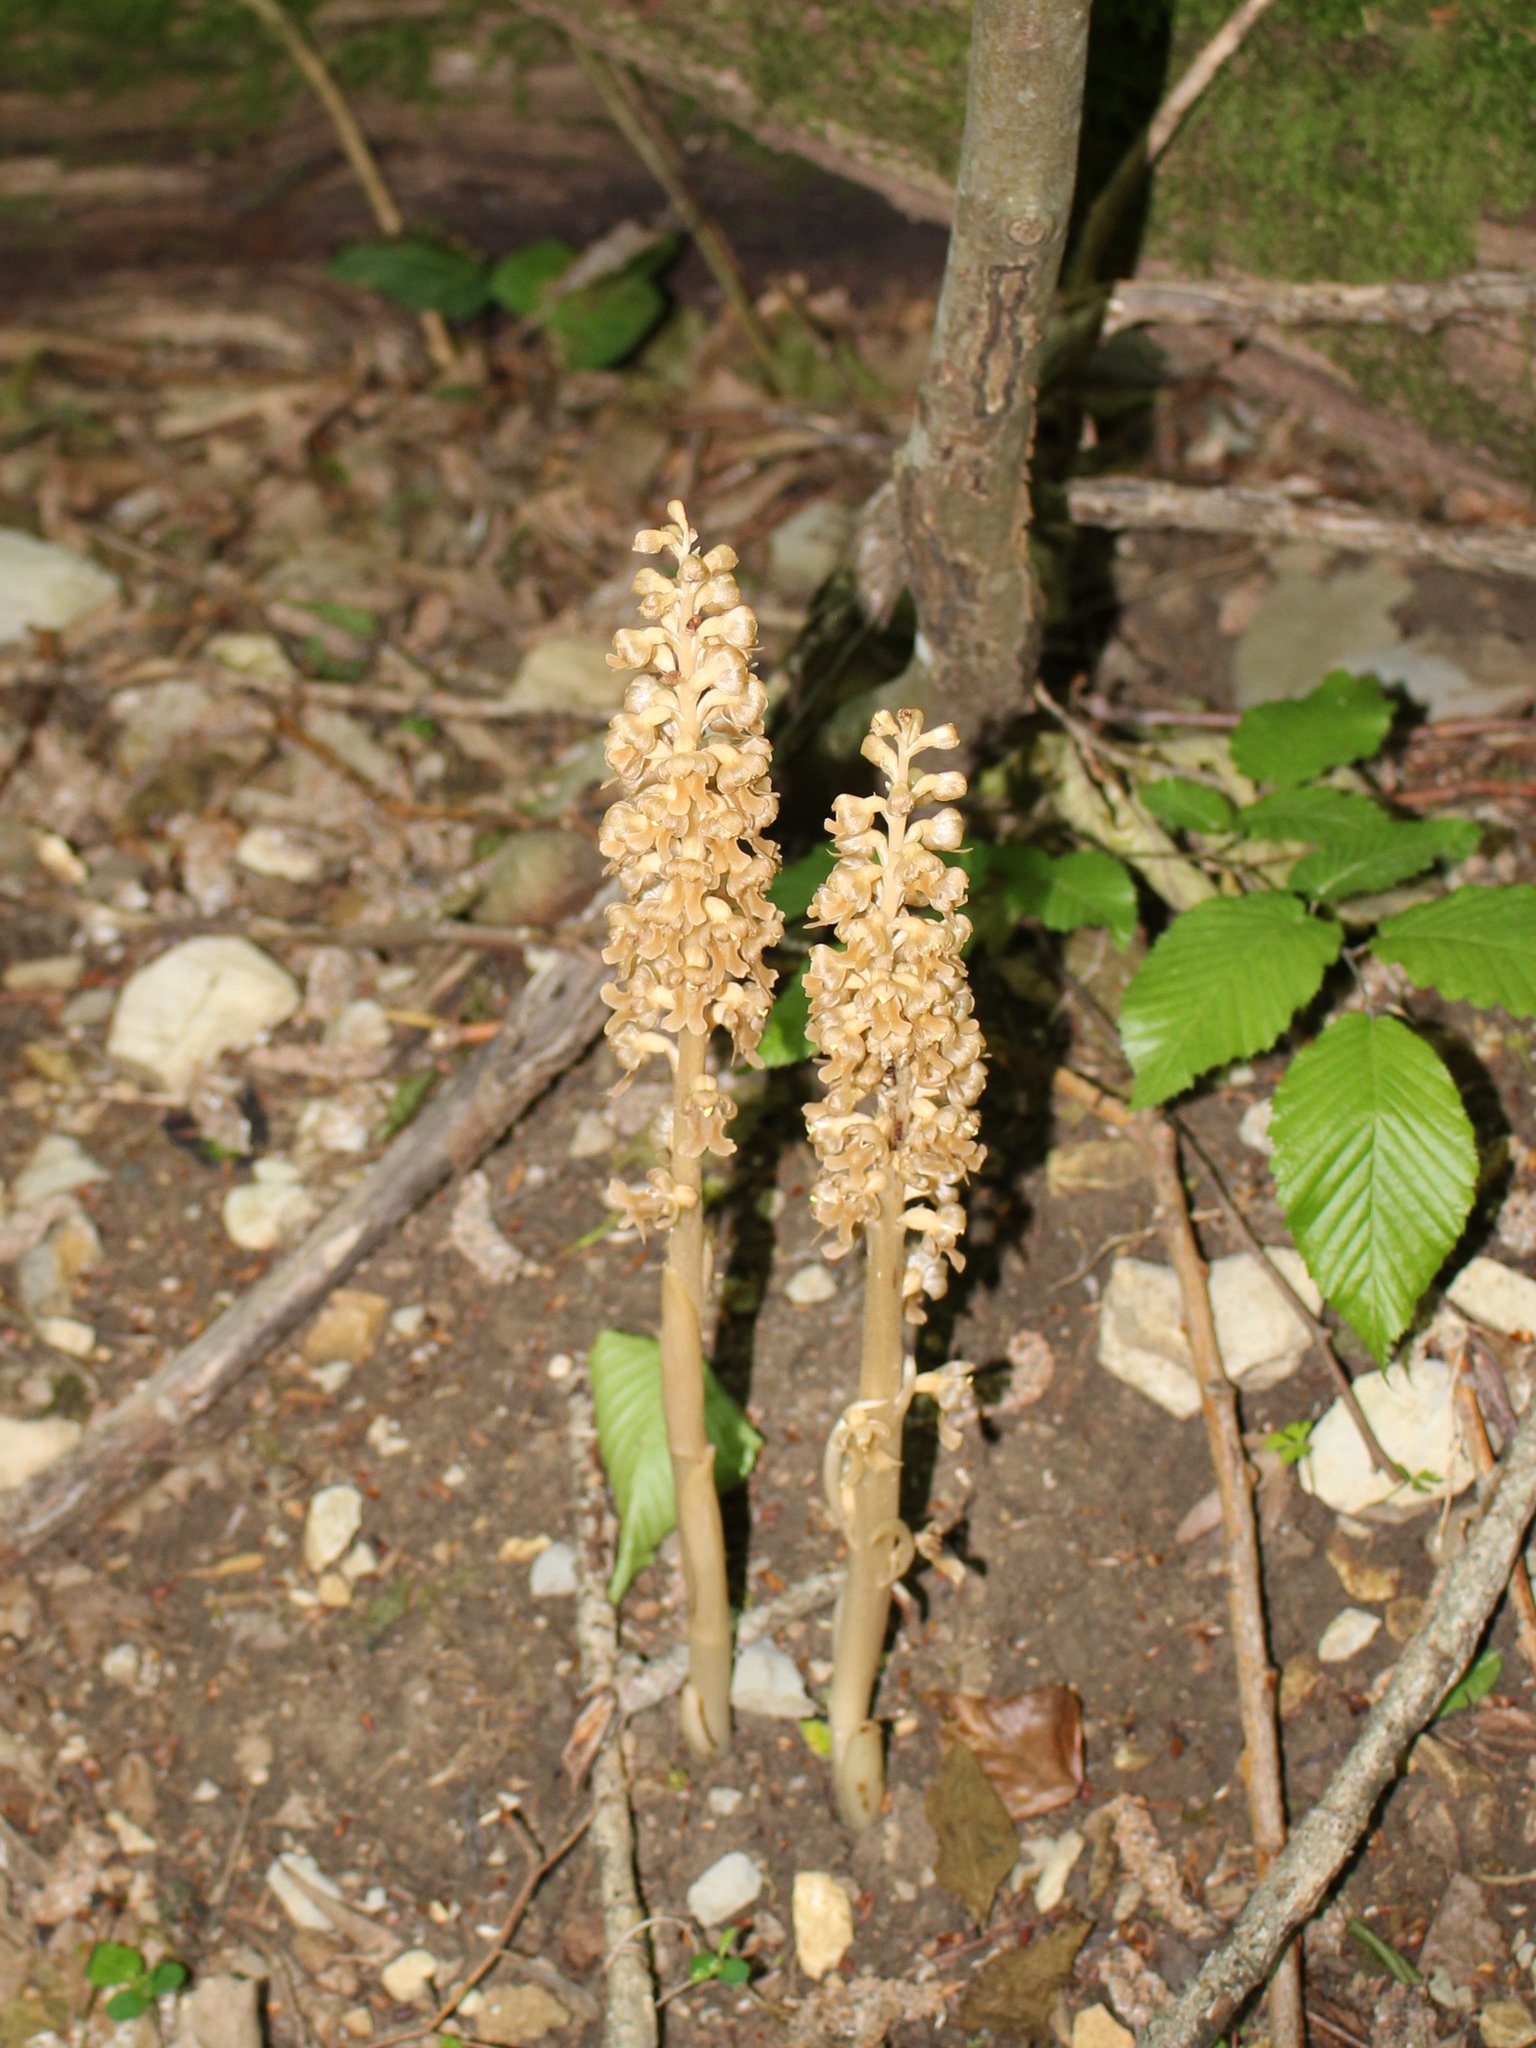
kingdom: Plantae
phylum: Tracheophyta
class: Liliopsida
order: Asparagales
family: Orchidaceae
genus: Neottia
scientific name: Neottia nidus-avis
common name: Bird's-nest orchid
